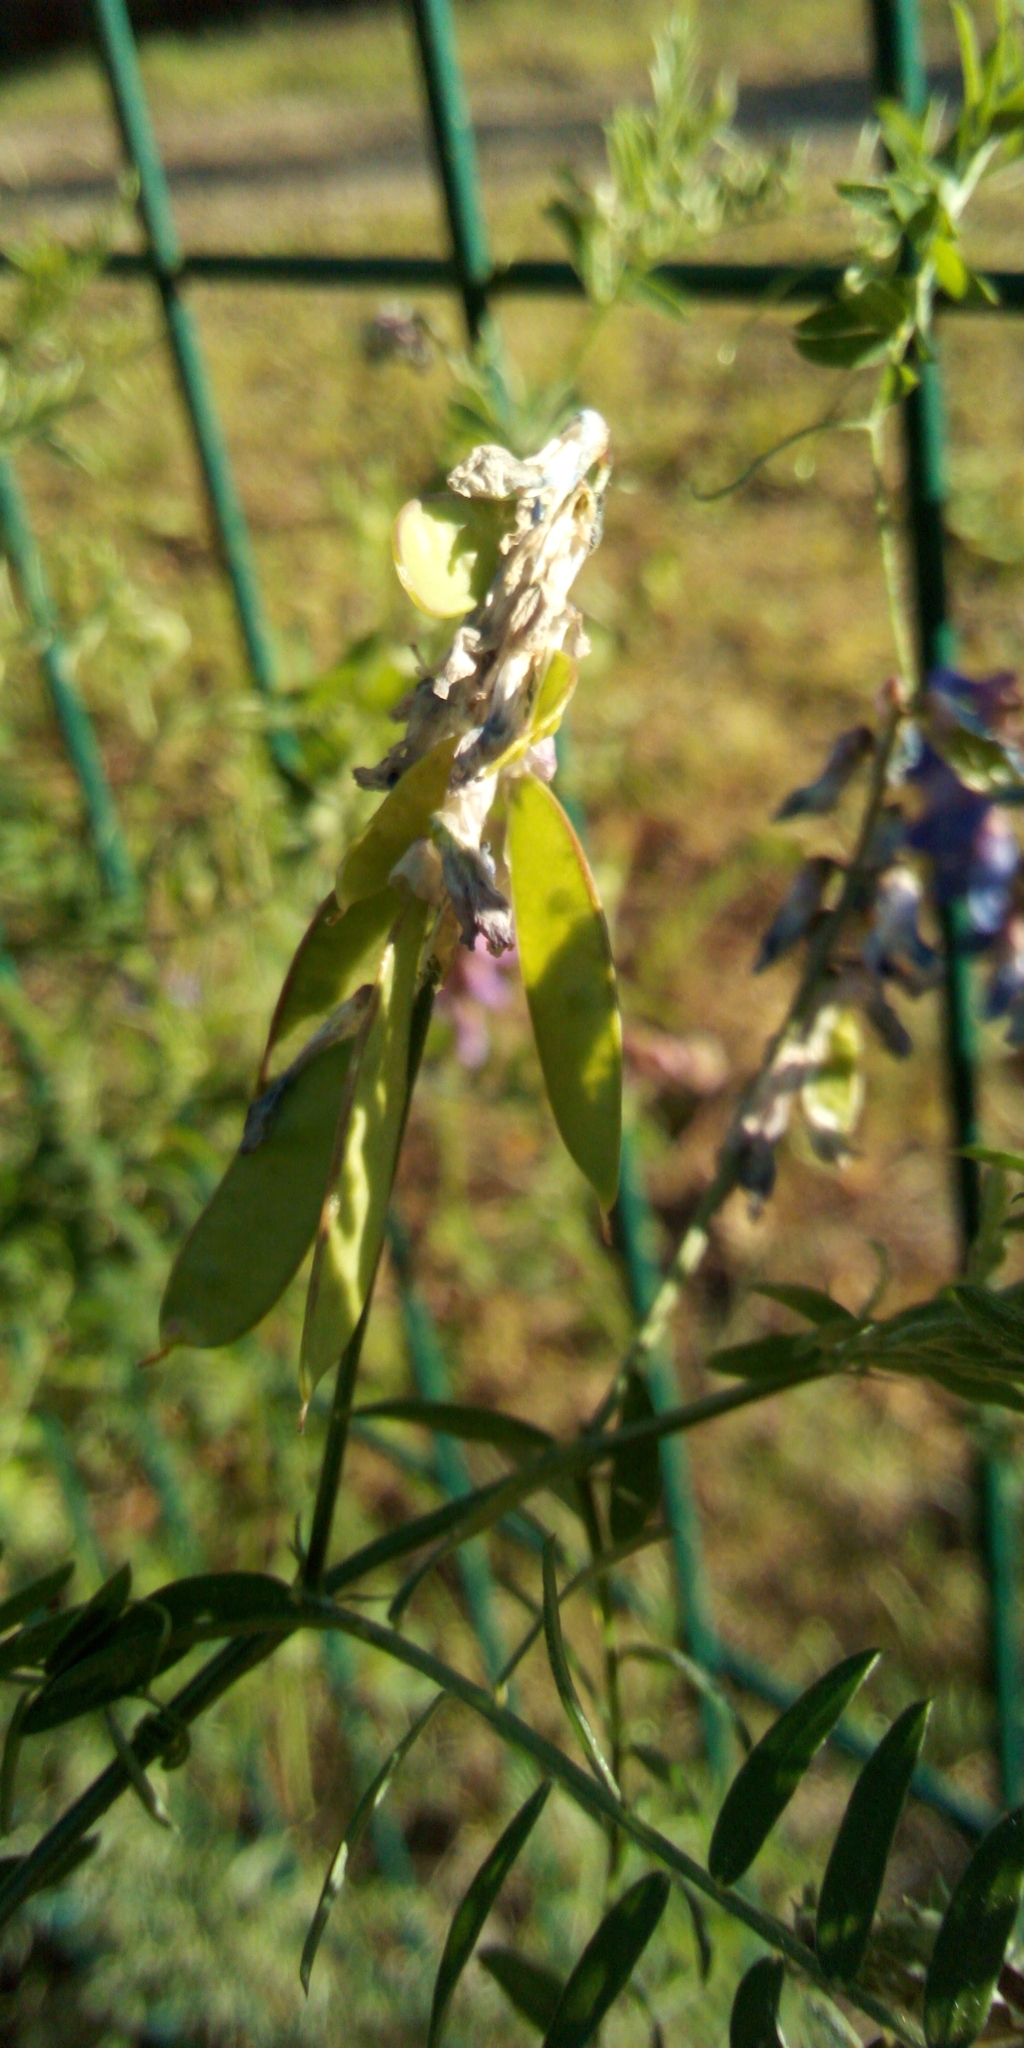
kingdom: Plantae
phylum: Tracheophyta
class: Magnoliopsida
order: Fabales
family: Fabaceae
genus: Vicia
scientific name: Vicia cracca
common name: Bird vetch
